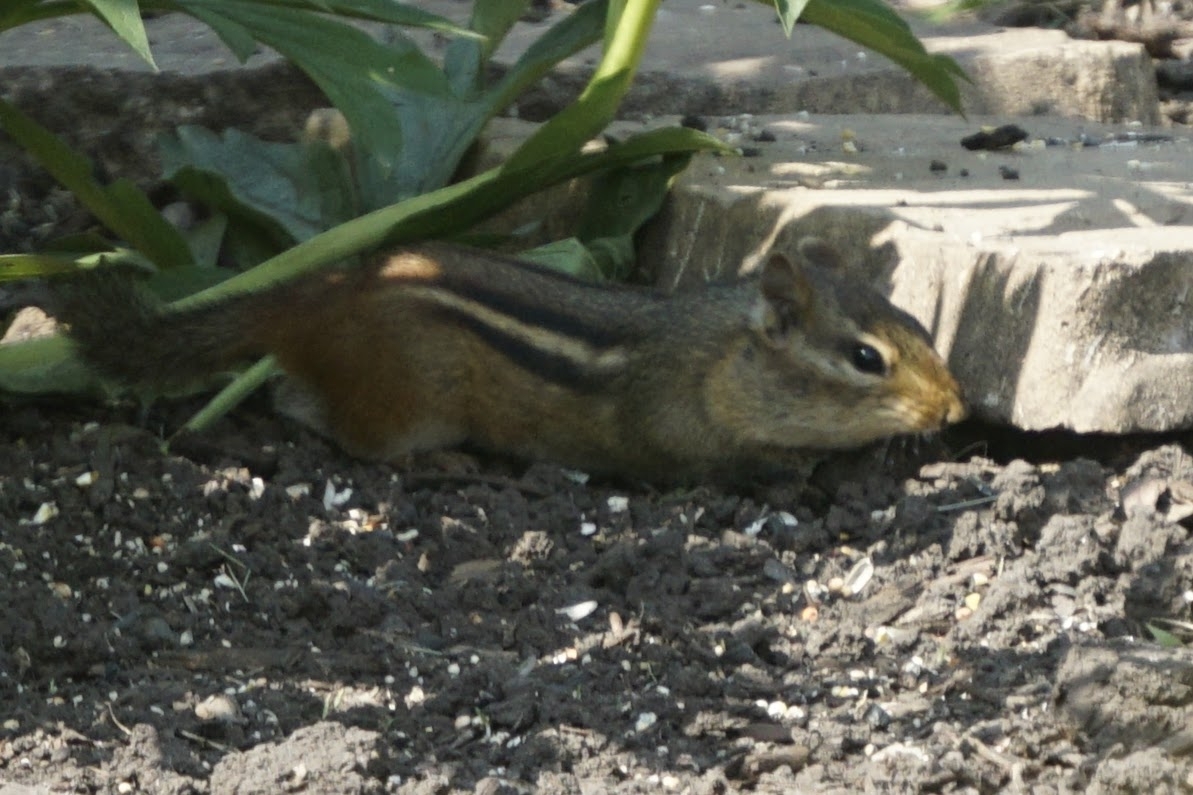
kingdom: Animalia
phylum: Chordata
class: Mammalia
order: Rodentia
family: Sciuridae
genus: Tamias
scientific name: Tamias striatus
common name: Eastern chipmunk
